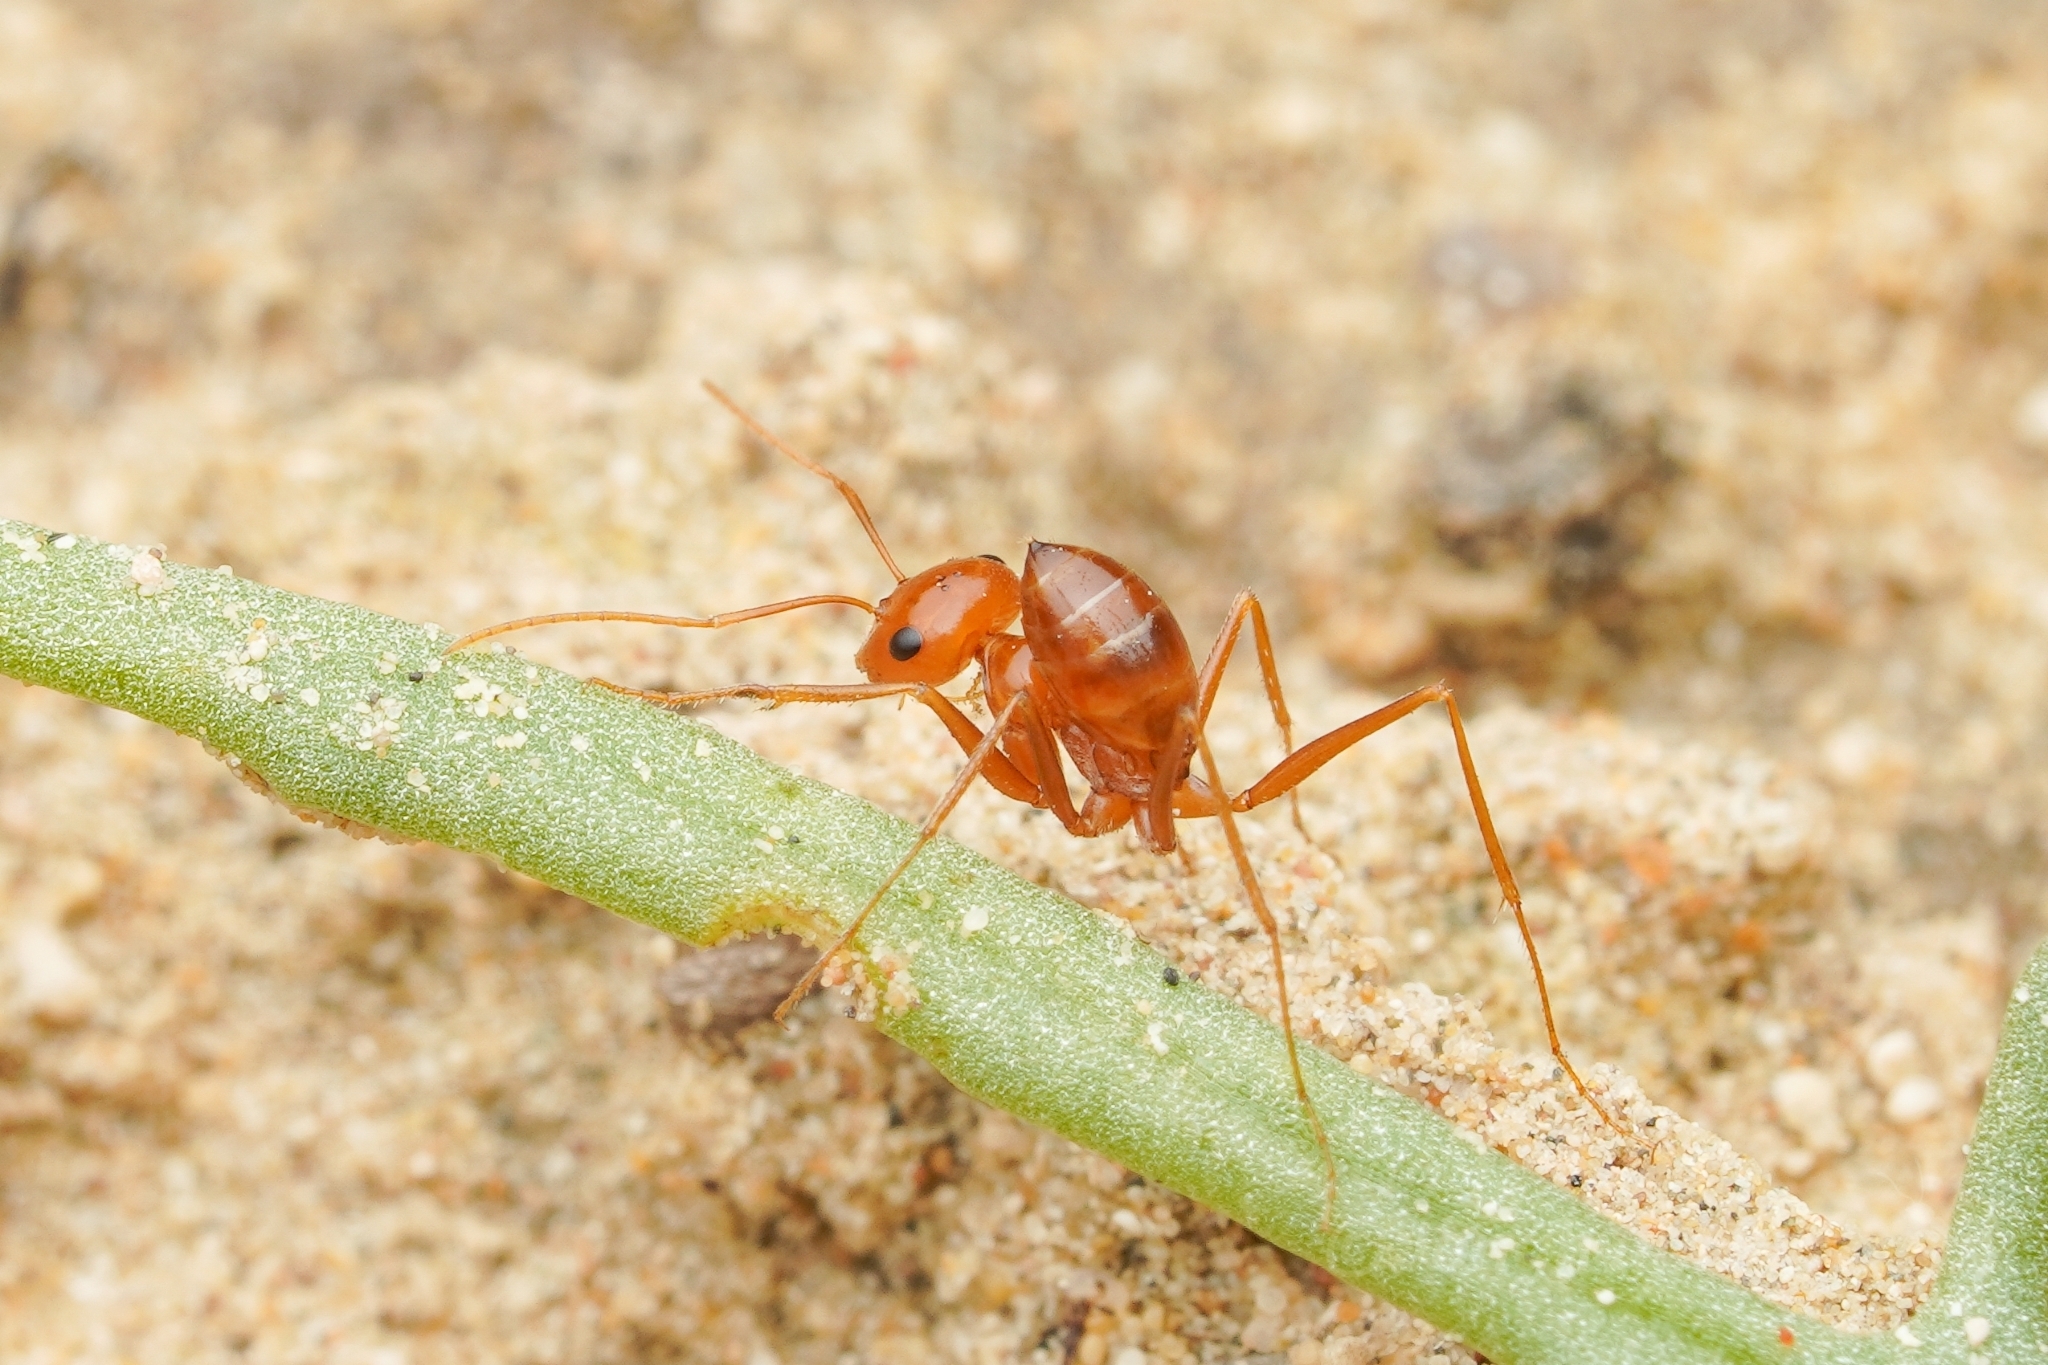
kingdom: Animalia
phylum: Arthropoda
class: Insecta
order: Hymenoptera
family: Formicidae
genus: Pheidole
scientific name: Pheidole lutea
